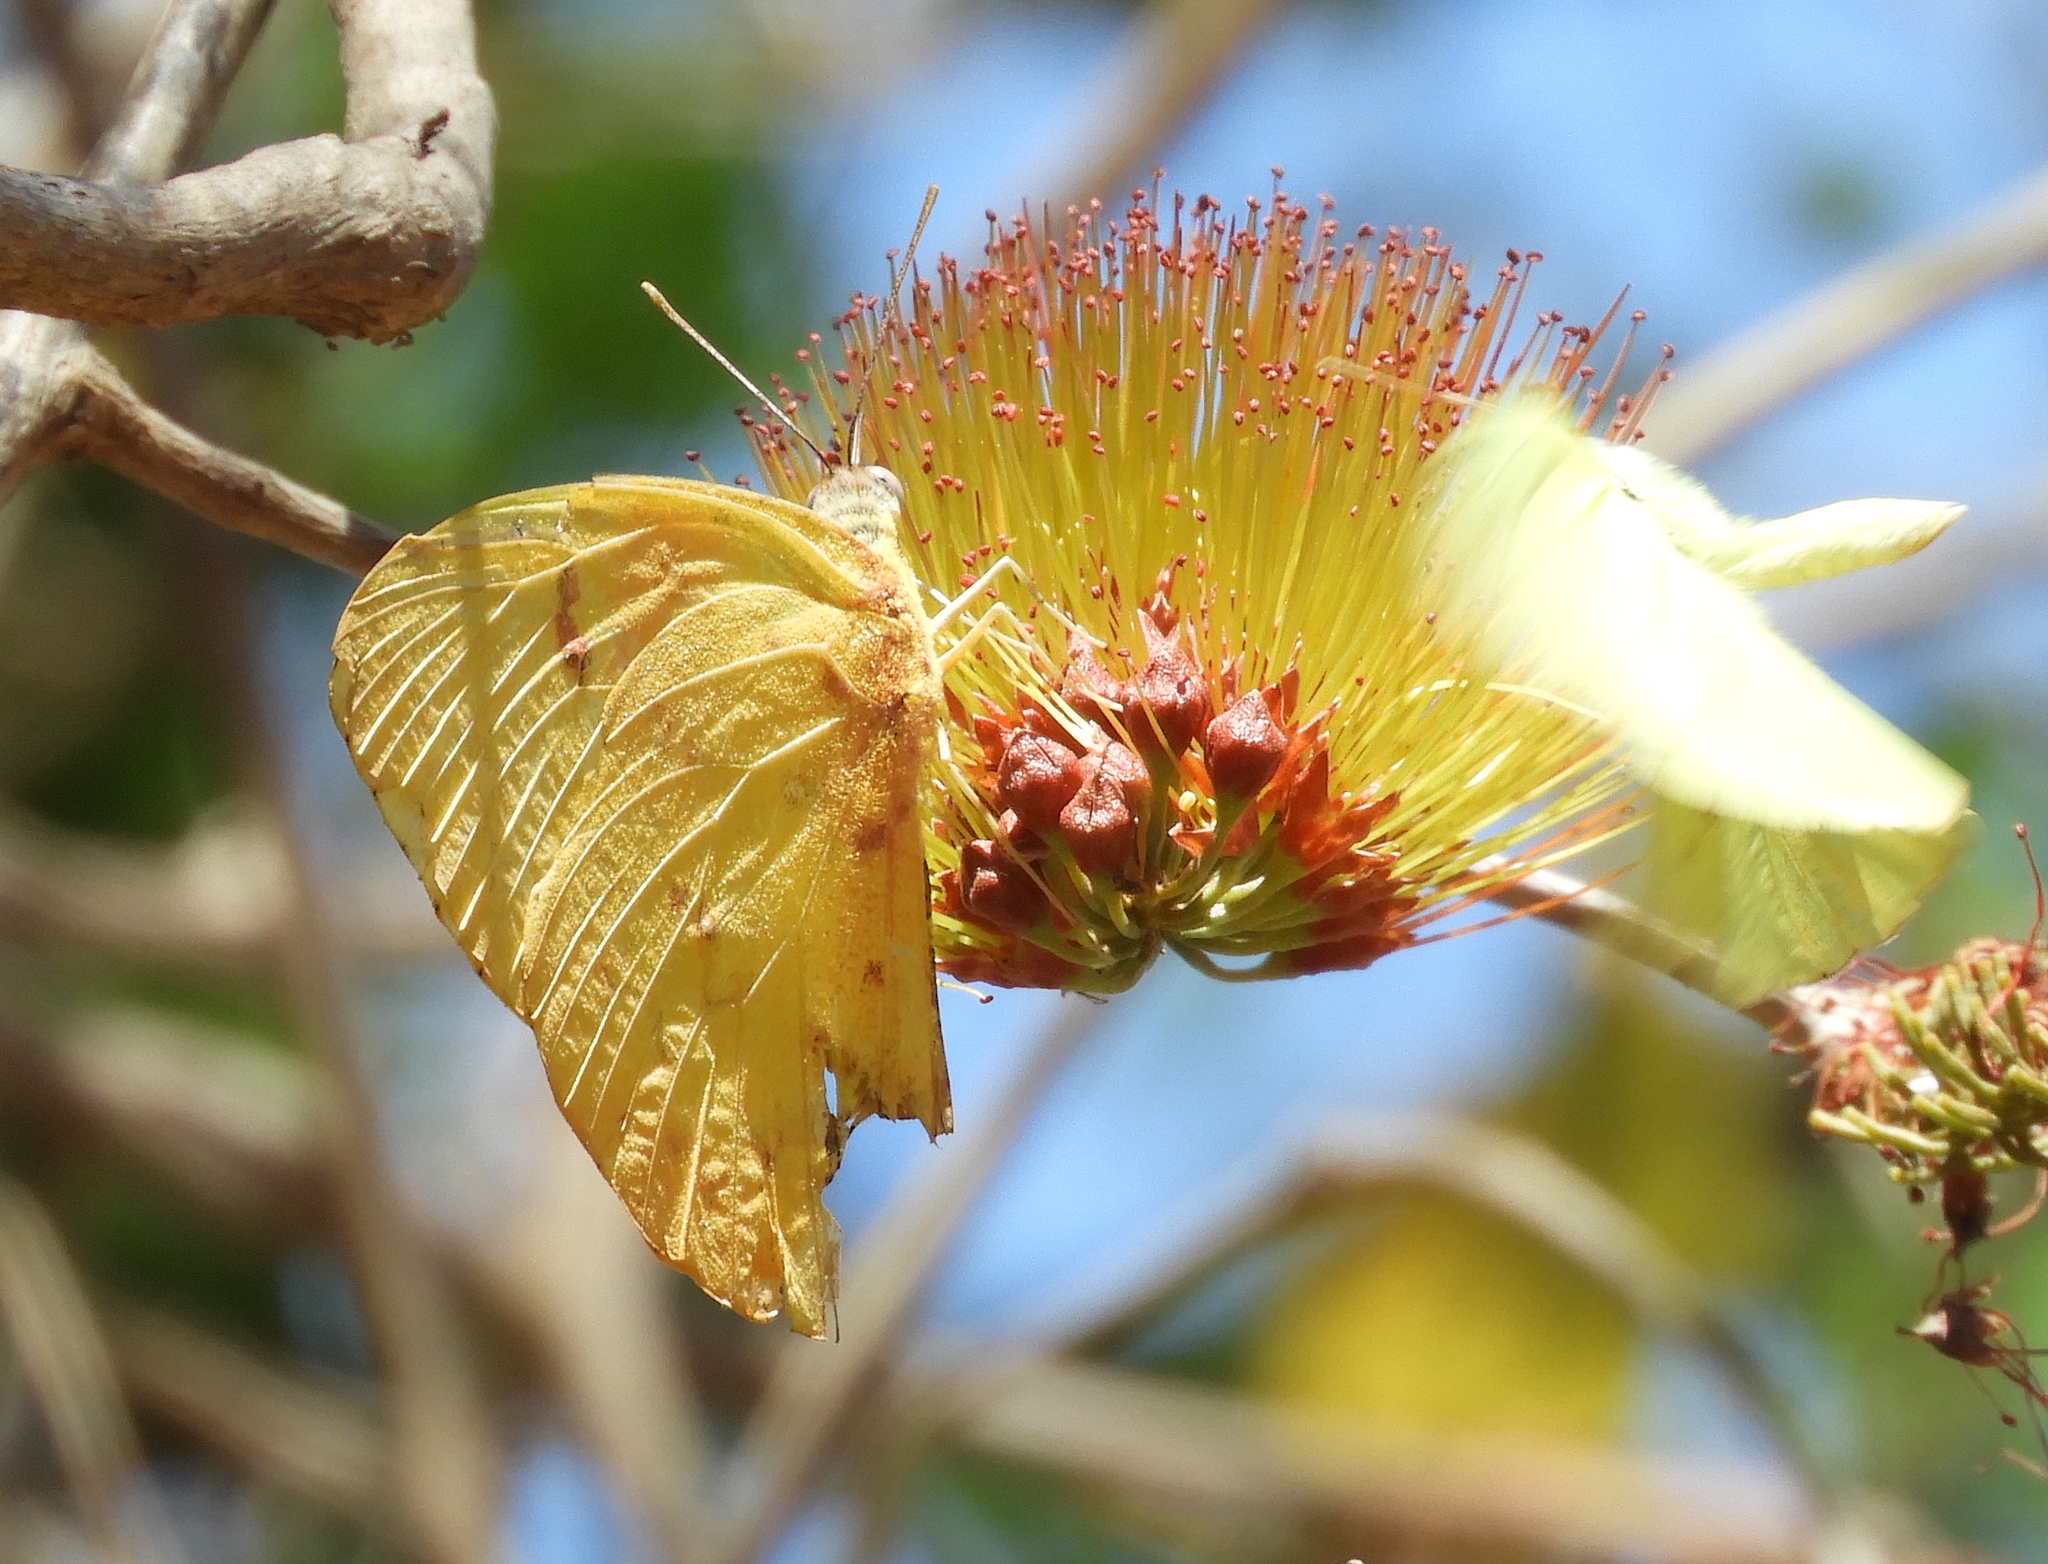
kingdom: Plantae
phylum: Tracheophyta
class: Magnoliopsida
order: Myrtales
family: Combretaceae
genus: Combretum
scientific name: Combretum farinosum
